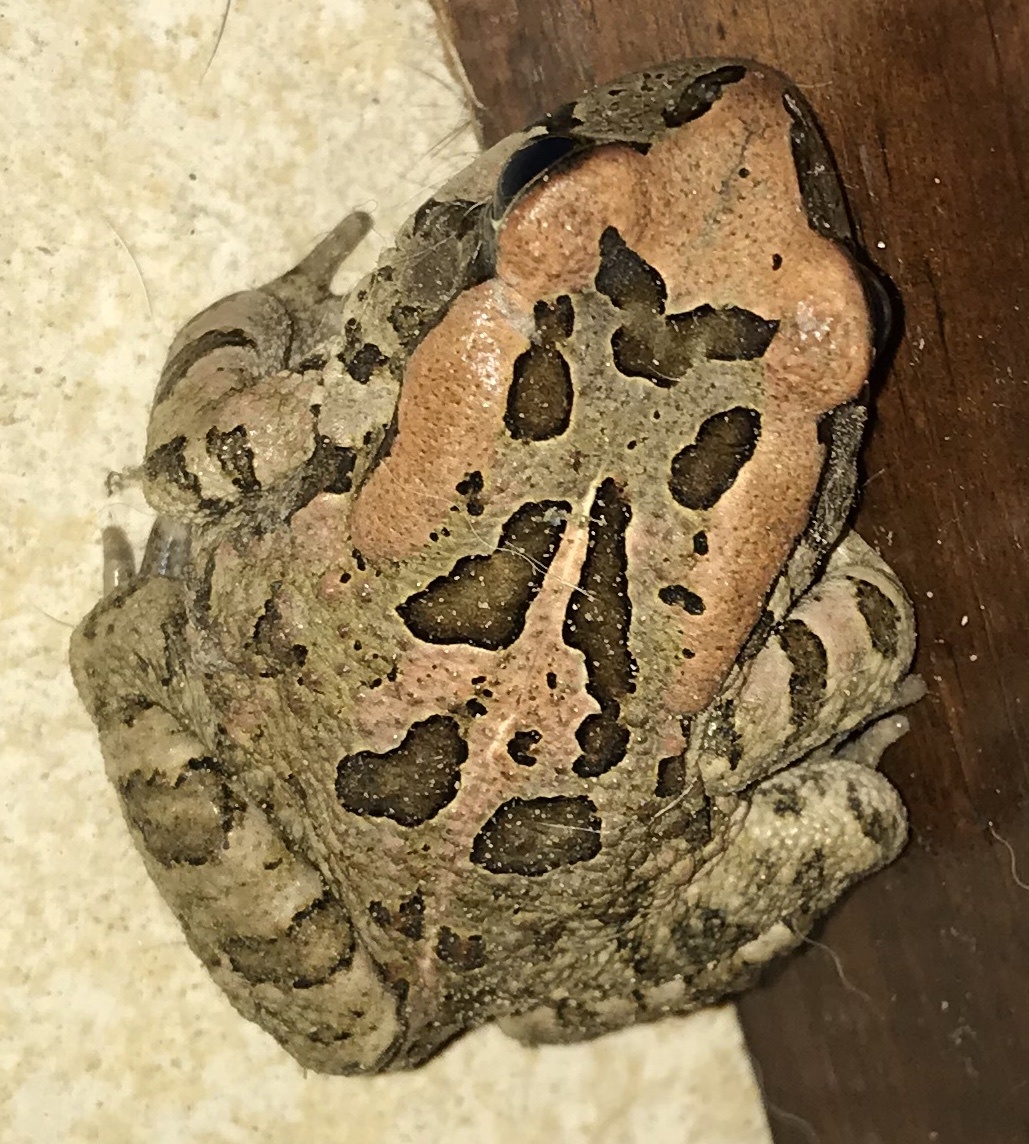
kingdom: Animalia
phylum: Chordata
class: Amphibia
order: Anura
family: Bufonidae
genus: Sclerophrys
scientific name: Sclerophrys capensis
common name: Ranger’s toad
